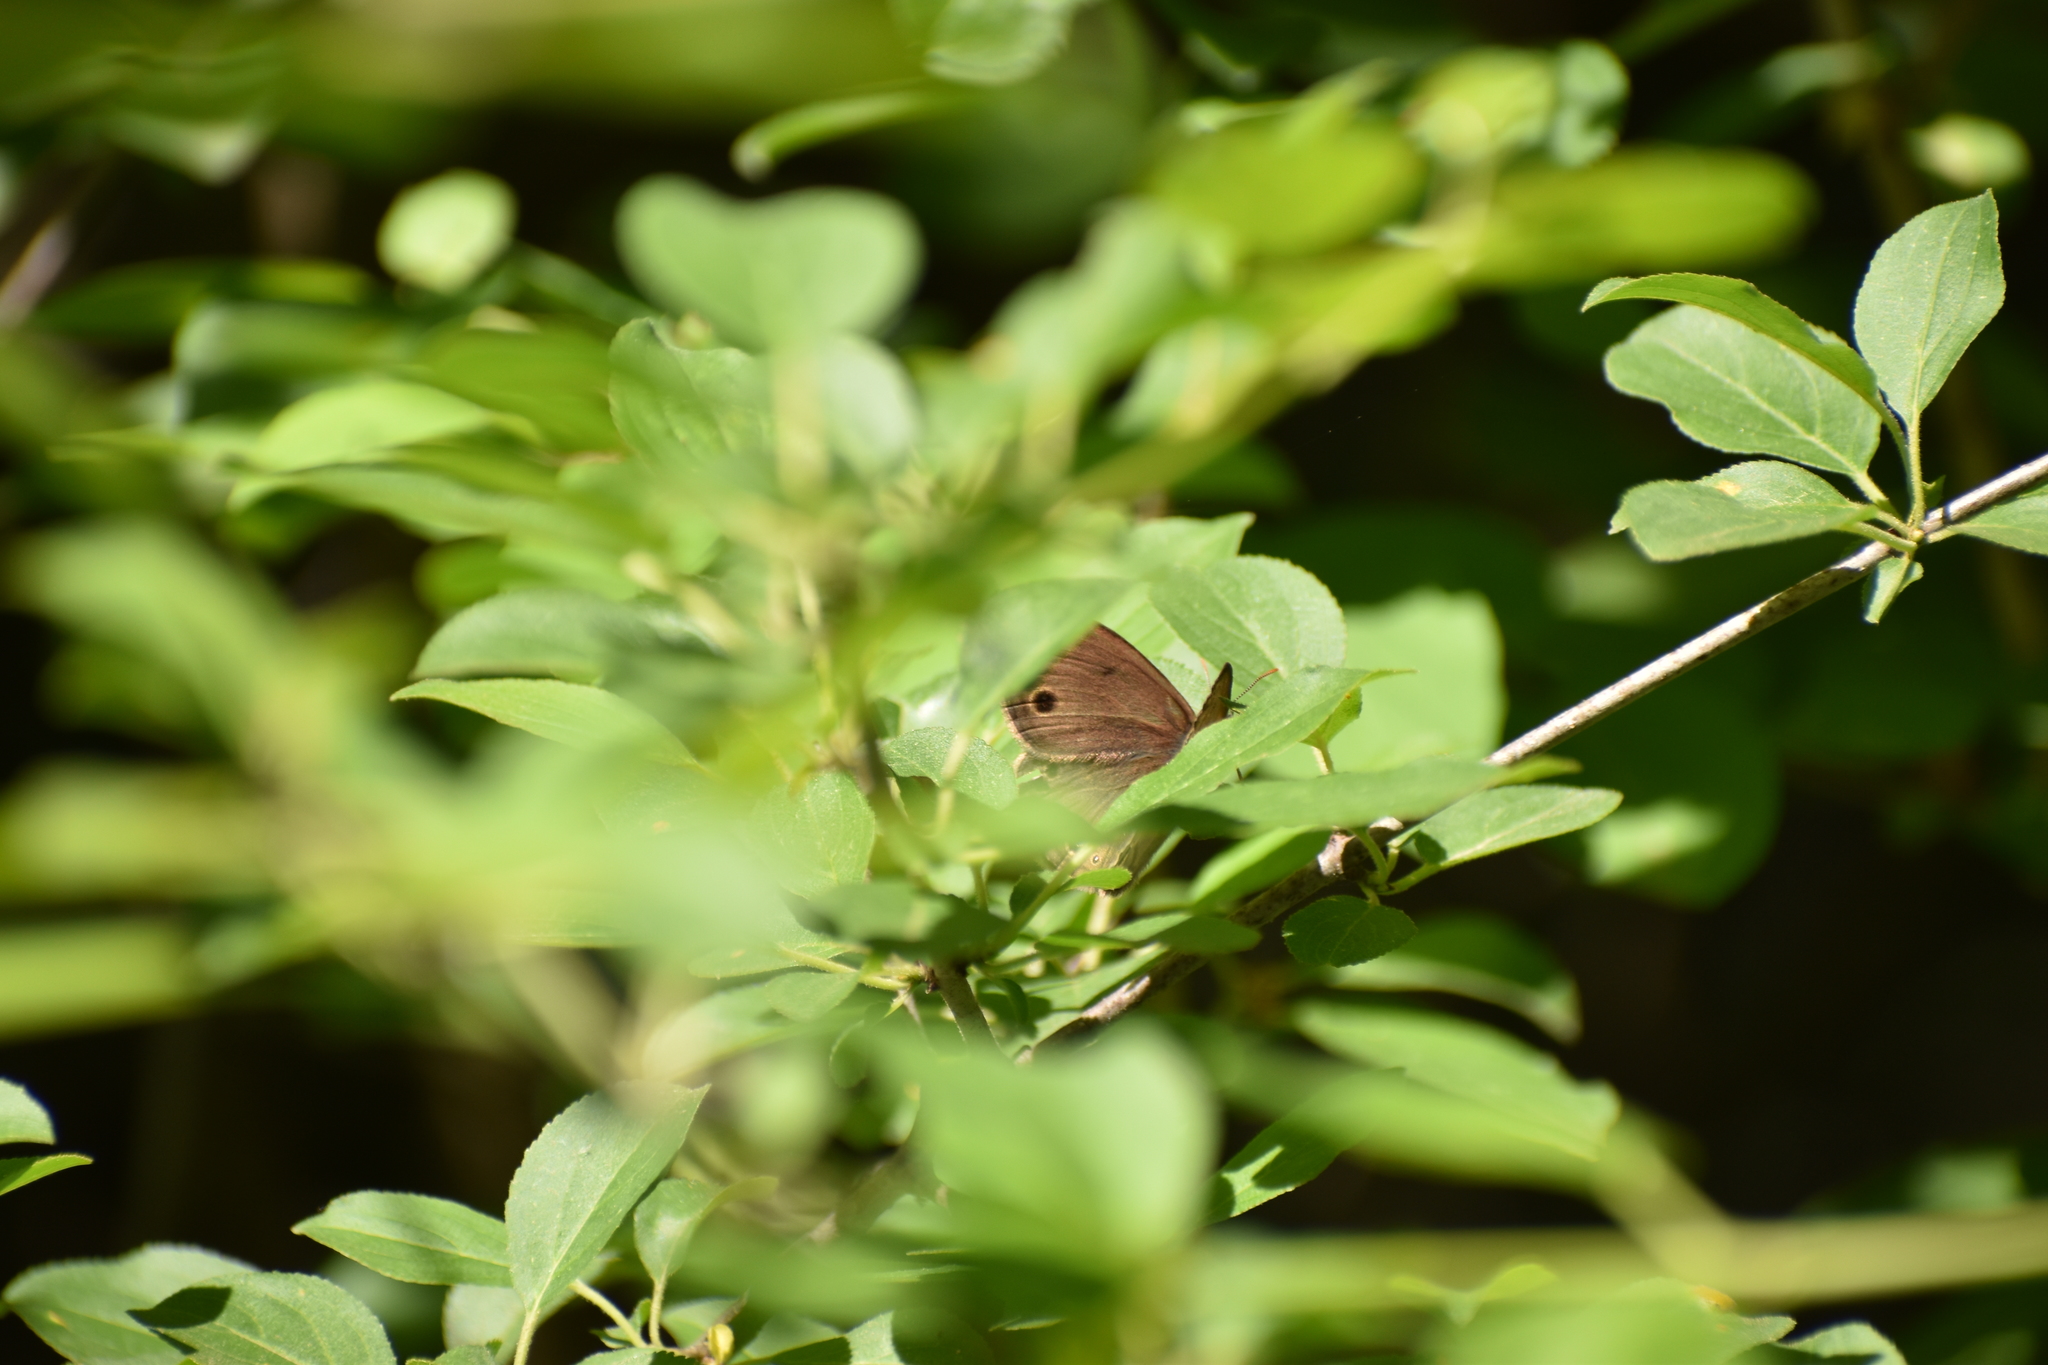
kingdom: Animalia
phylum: Arthropoda
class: Insecta
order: Lepidoptera
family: Nymphalidae
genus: Euptychia
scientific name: Euptychia cymela
